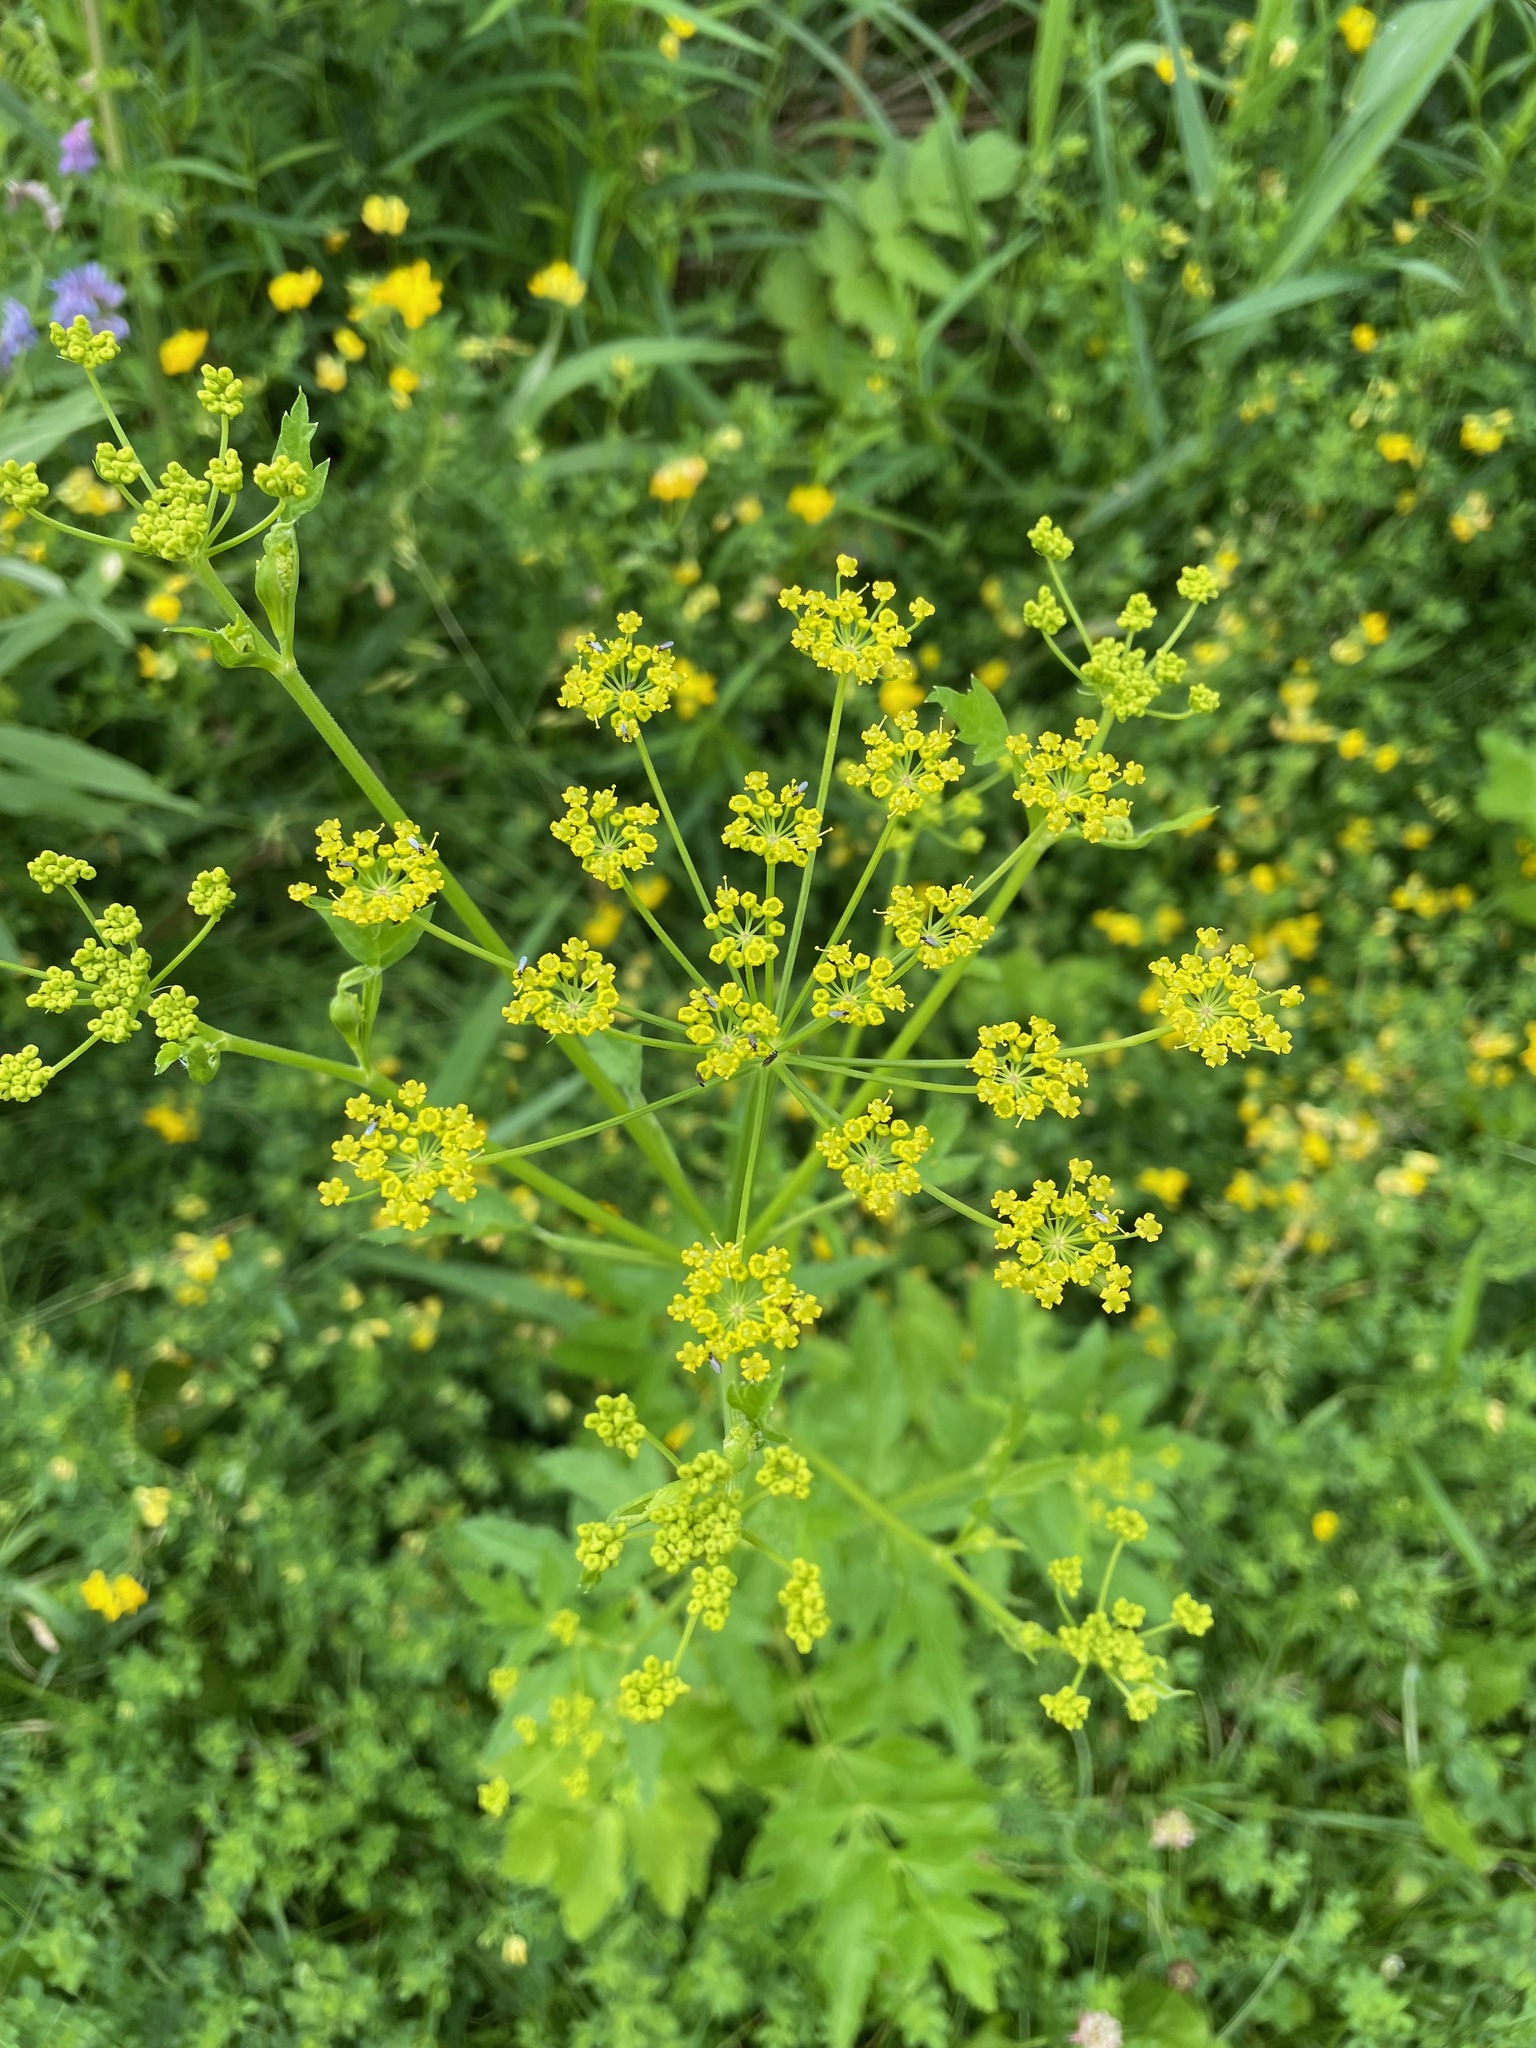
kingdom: Plantae
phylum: Tracheophyta
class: Magnoliopsida
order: Apiales
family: Apiaceae
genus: Pastinaca
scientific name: Pastinaca sativa
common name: Wild parsnip
